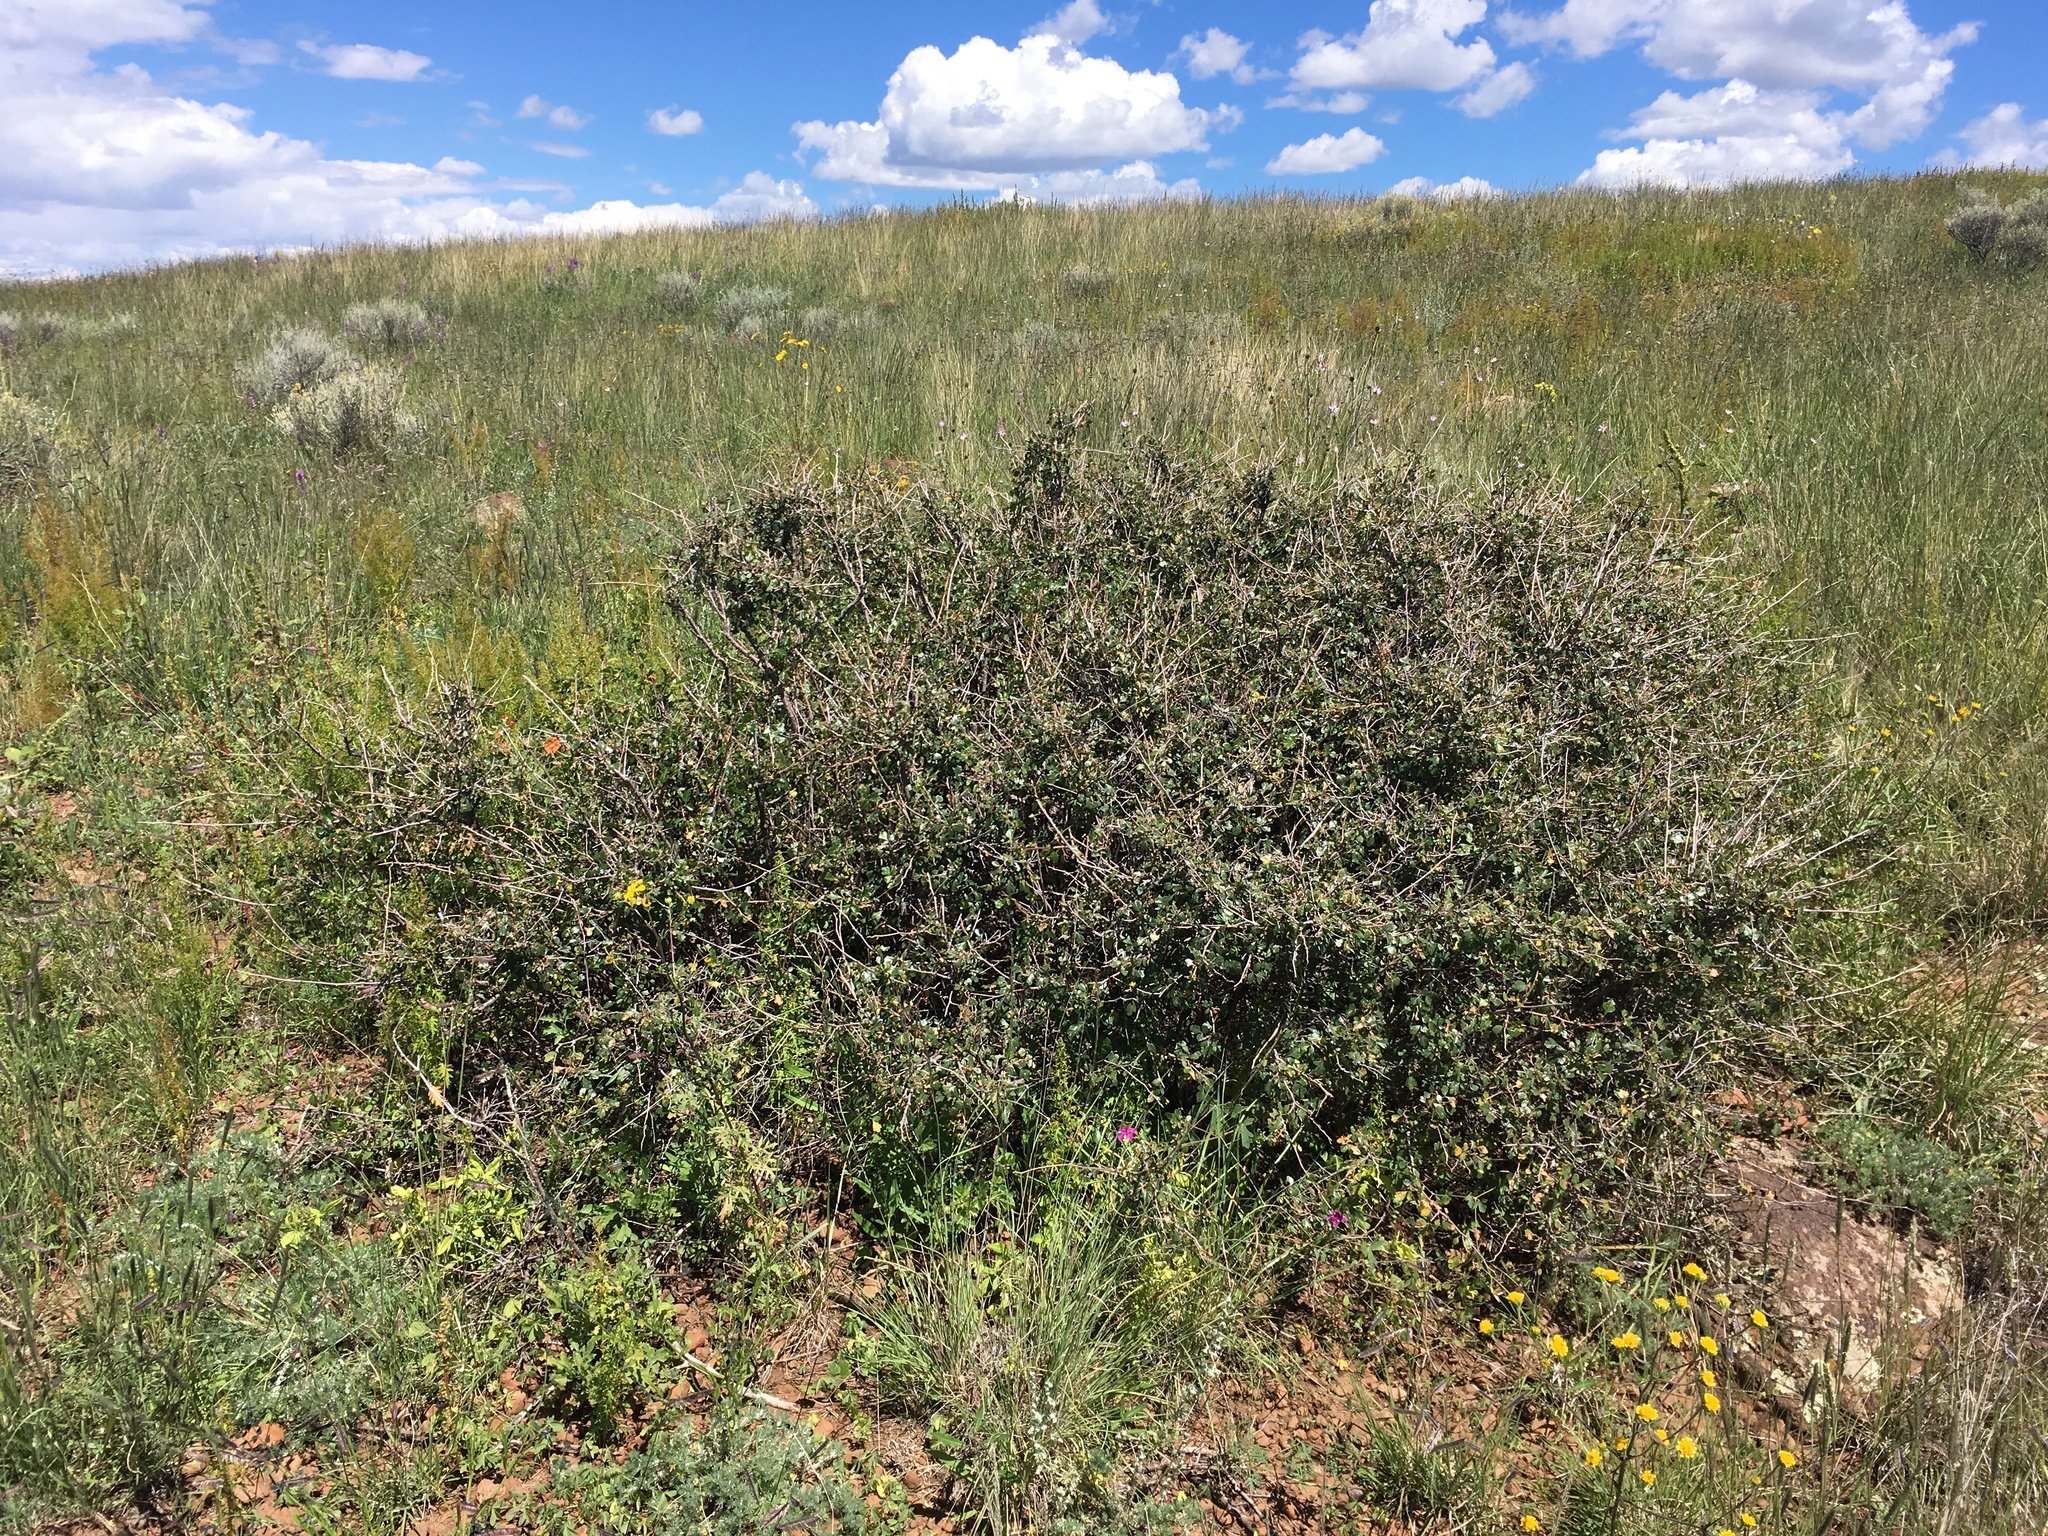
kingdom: Plantae
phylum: Tracheophyta
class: Magnoliopsida
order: Sapindales
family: Anacardiaceae
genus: Rhus
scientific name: Rhus aromatica
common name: Aromatic sumac
